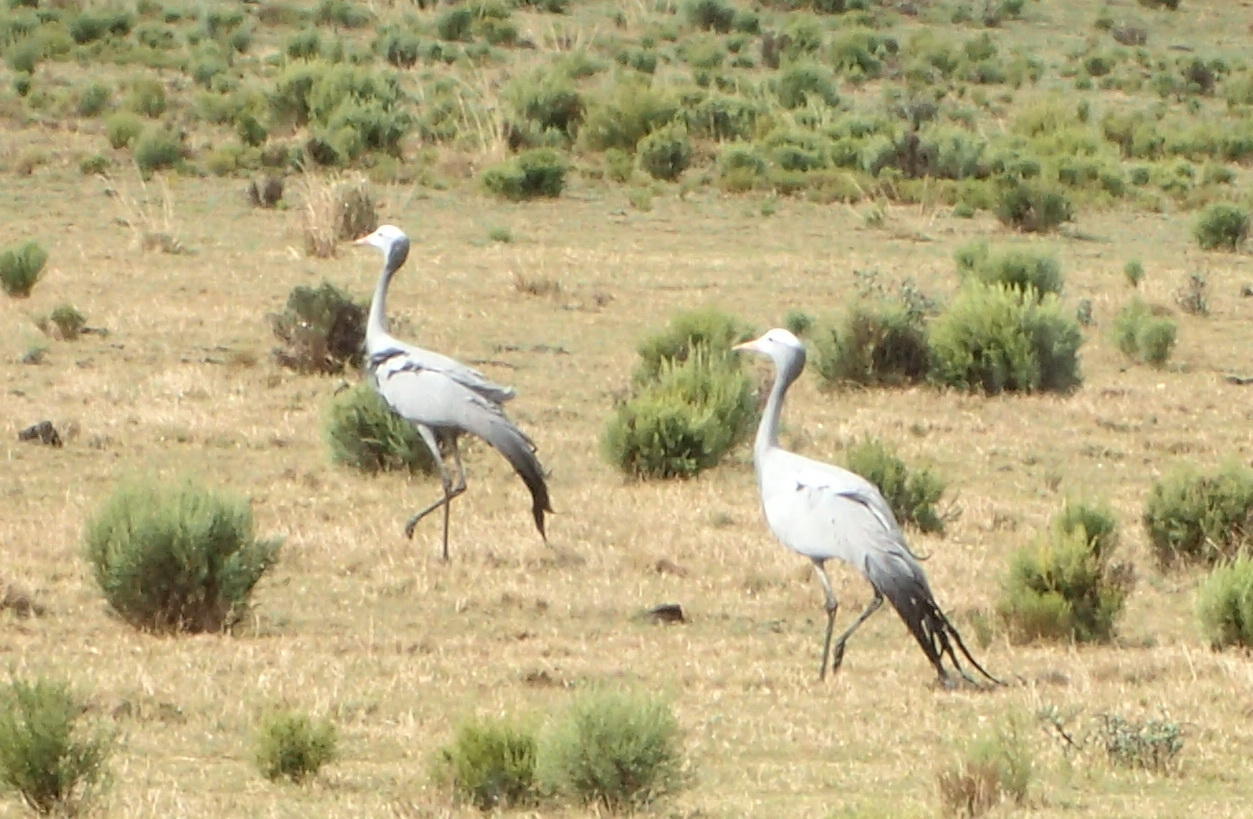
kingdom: Animalia
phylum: Chordata
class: Aves
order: Gruiformes
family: Gruidae
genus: Anthropoides
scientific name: Anthropoides paradiseus
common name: Blue crane
